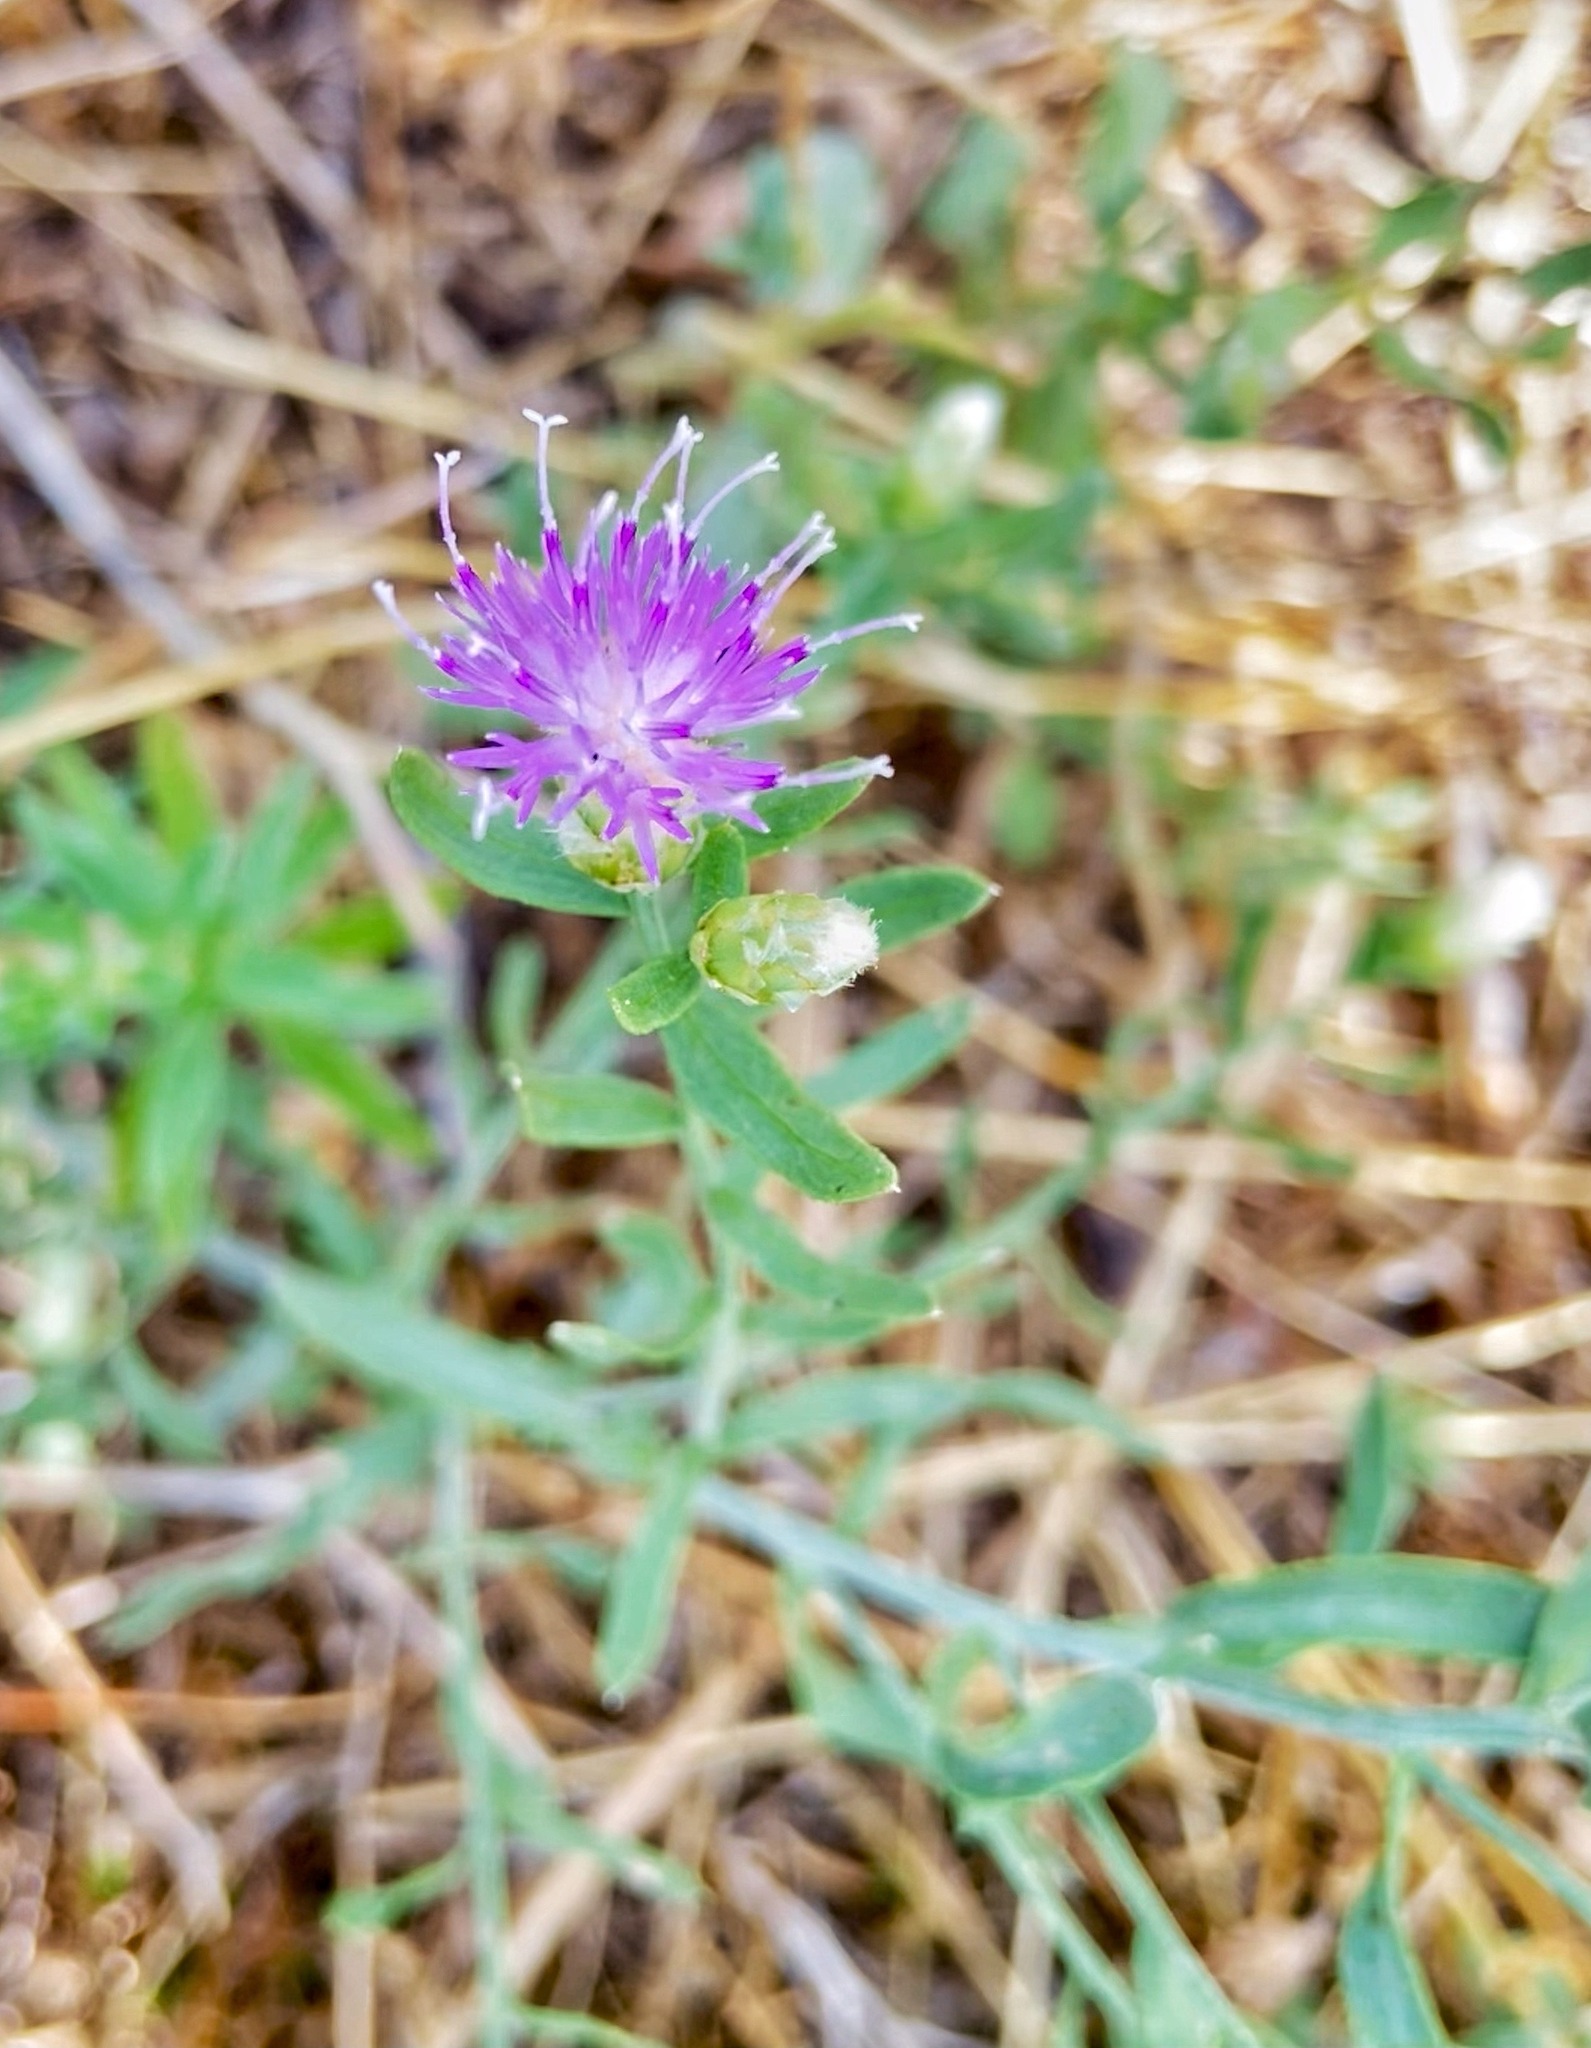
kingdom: Plantae
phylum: Tracheophyta
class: Magnoliopsida
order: Asterales
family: Asteraceae
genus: Leuzea
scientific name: Leuzea repens
